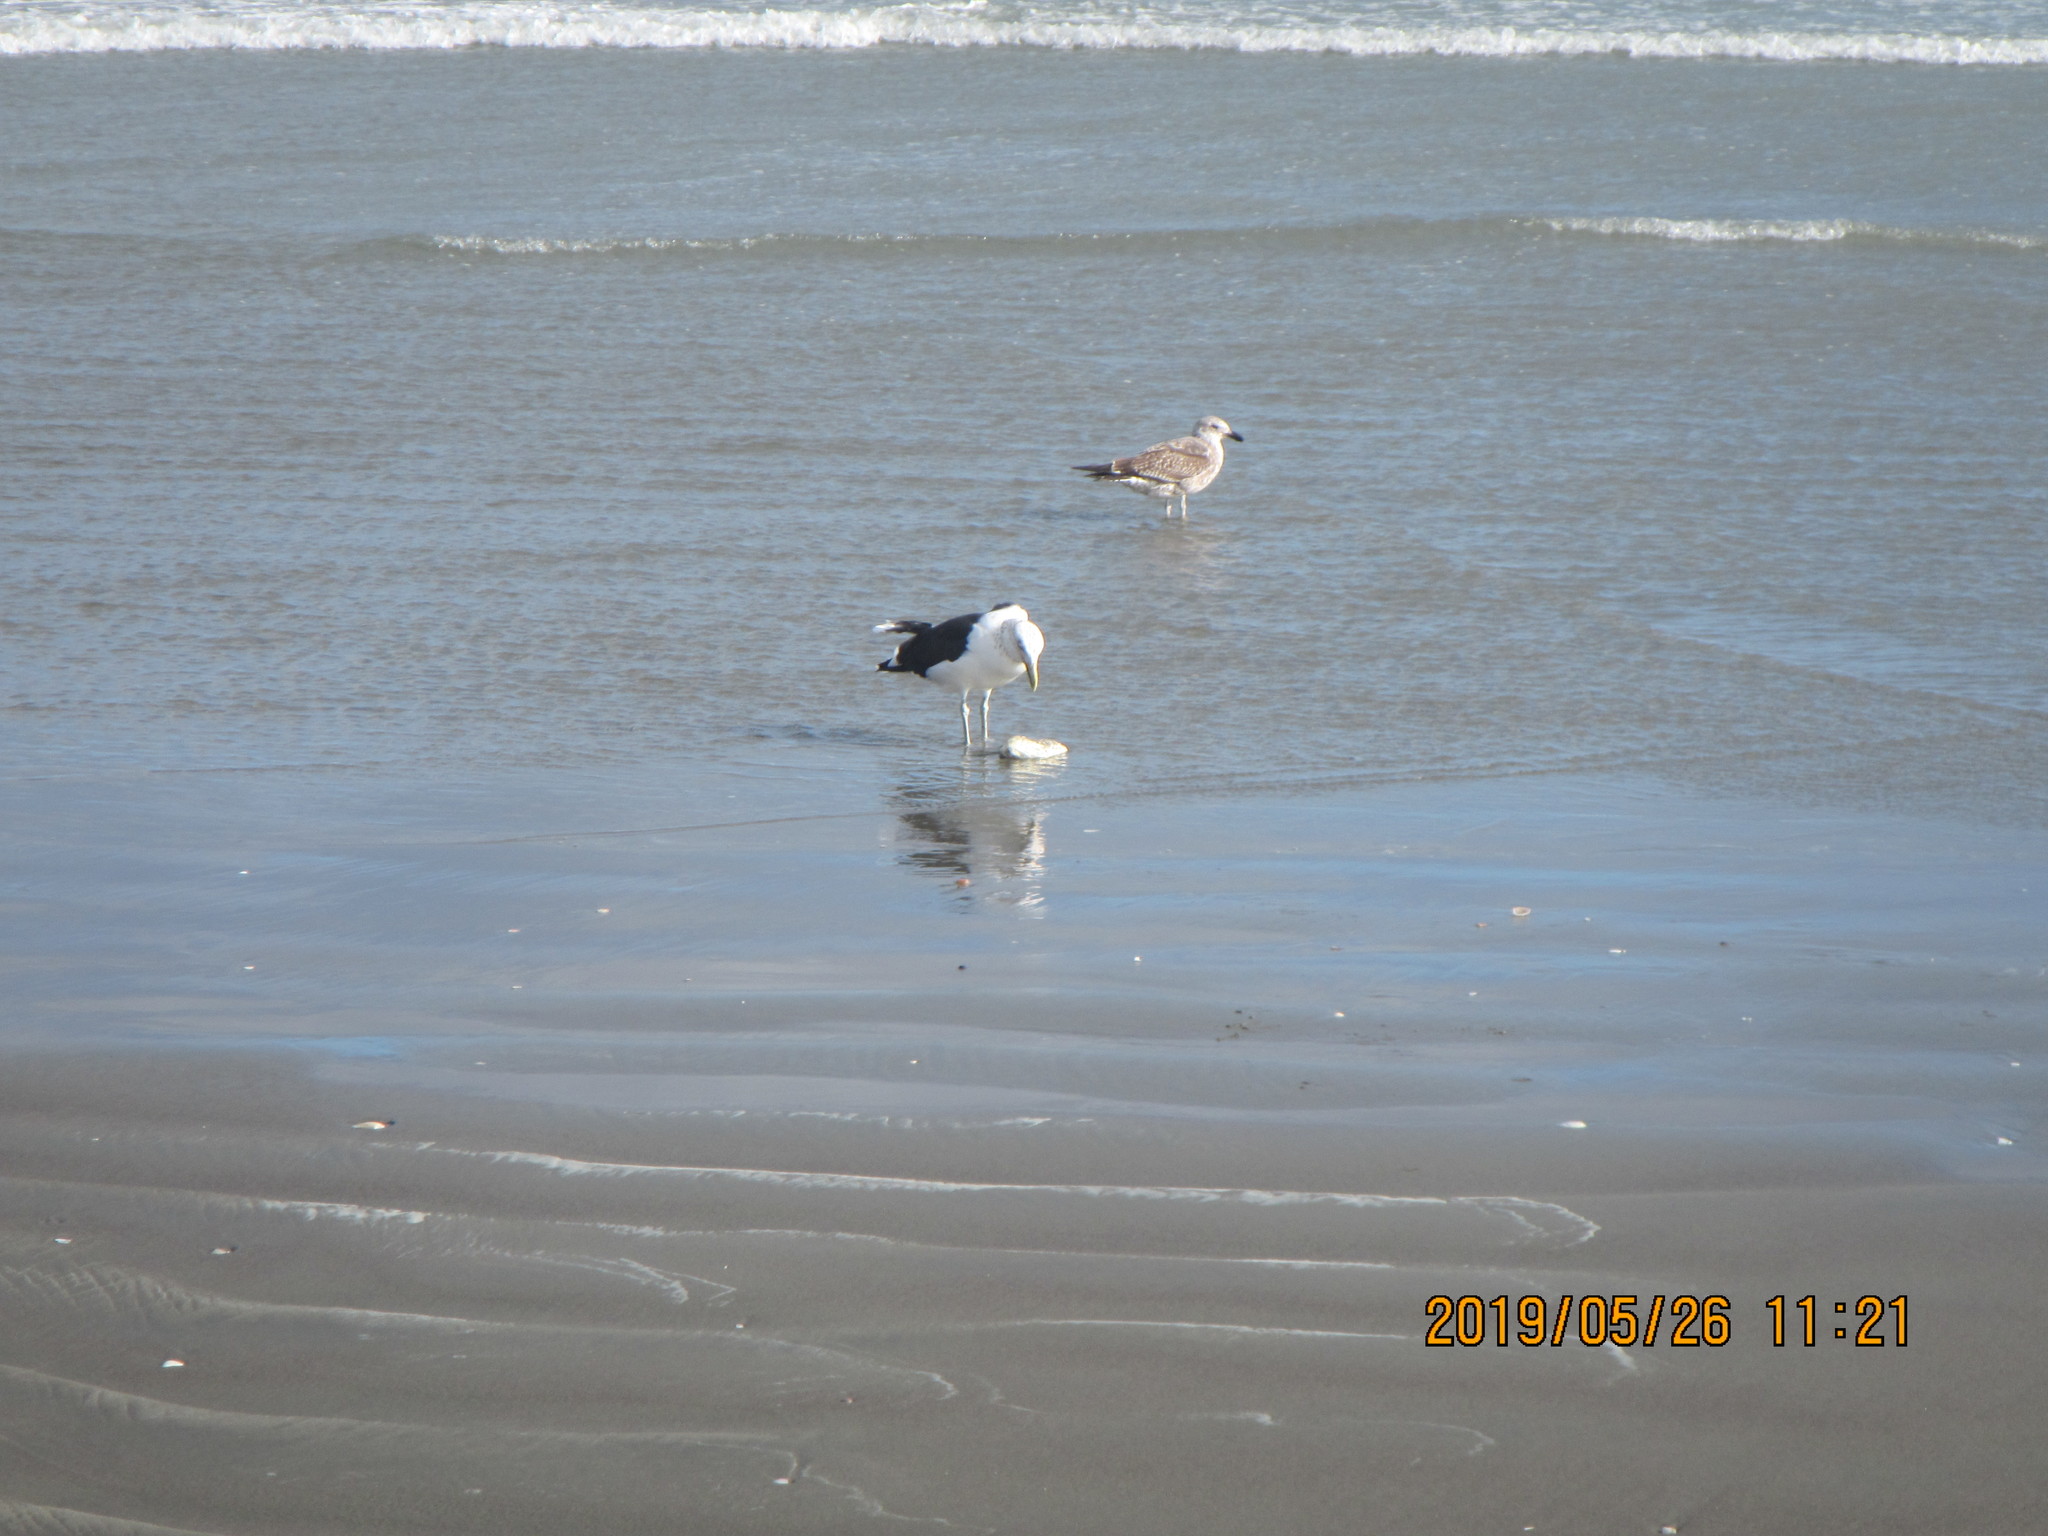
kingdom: Animalia
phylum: Chordata
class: Aves
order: Charadriiformes
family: Laridae
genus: Larus
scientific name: Larus dominicanus
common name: Kelp gull
